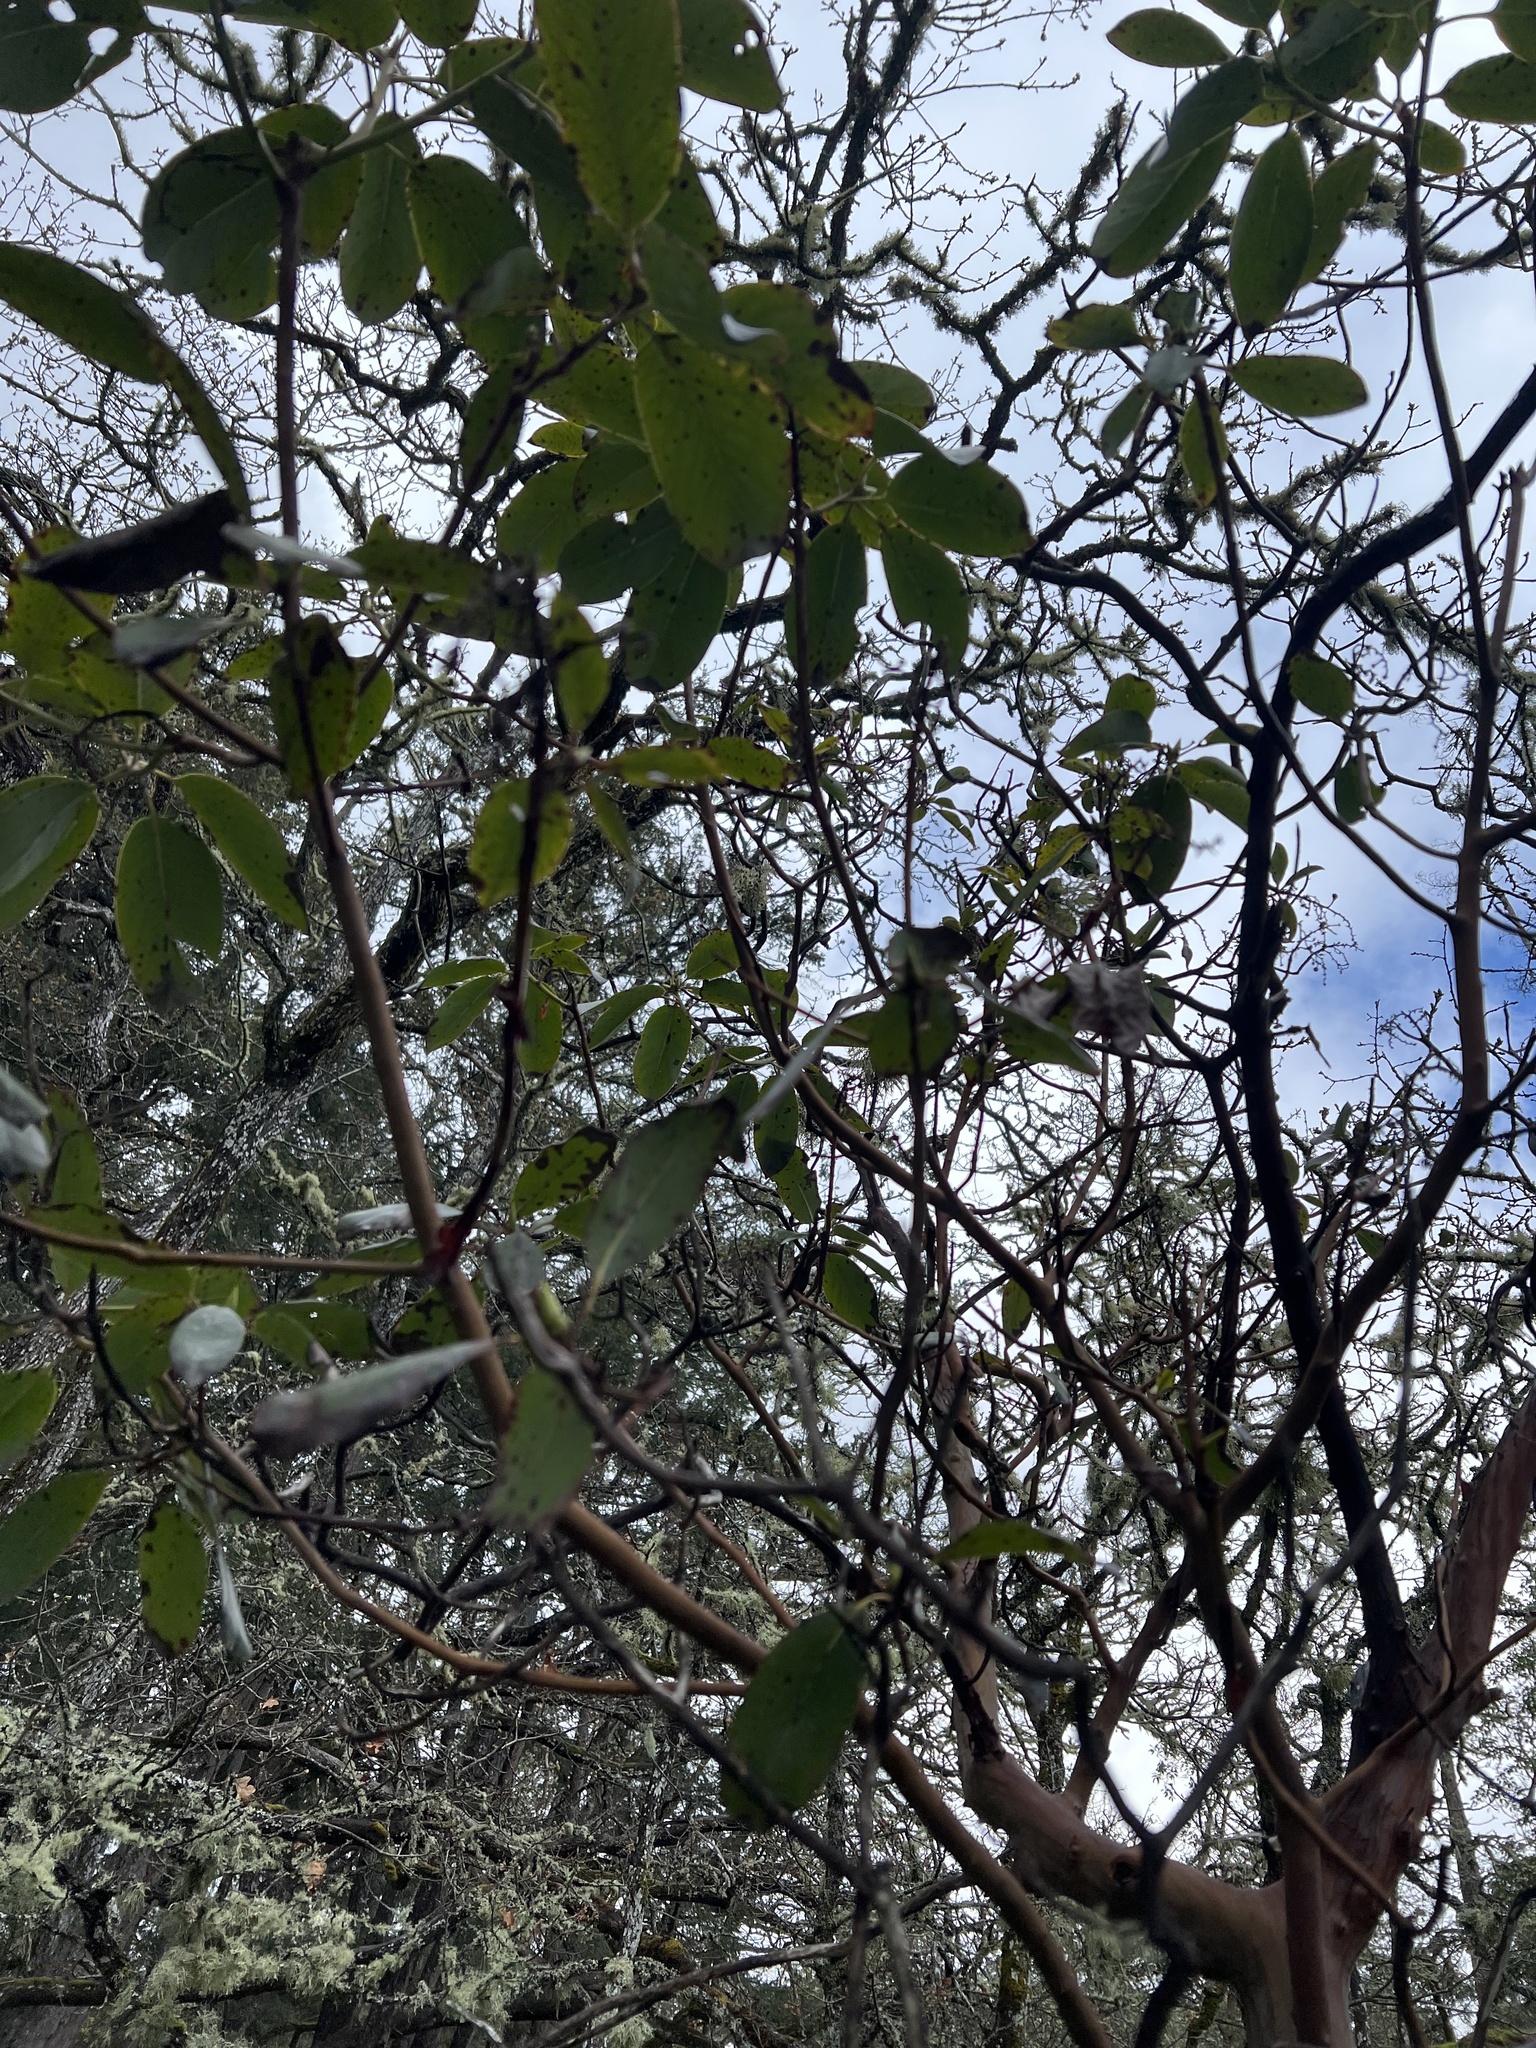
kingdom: Plantae
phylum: Tracheophyta
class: Magnoliopsida
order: Ericales
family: Ericaceae
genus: Arbutus
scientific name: Arbutus menziesii
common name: Pacific madrone
